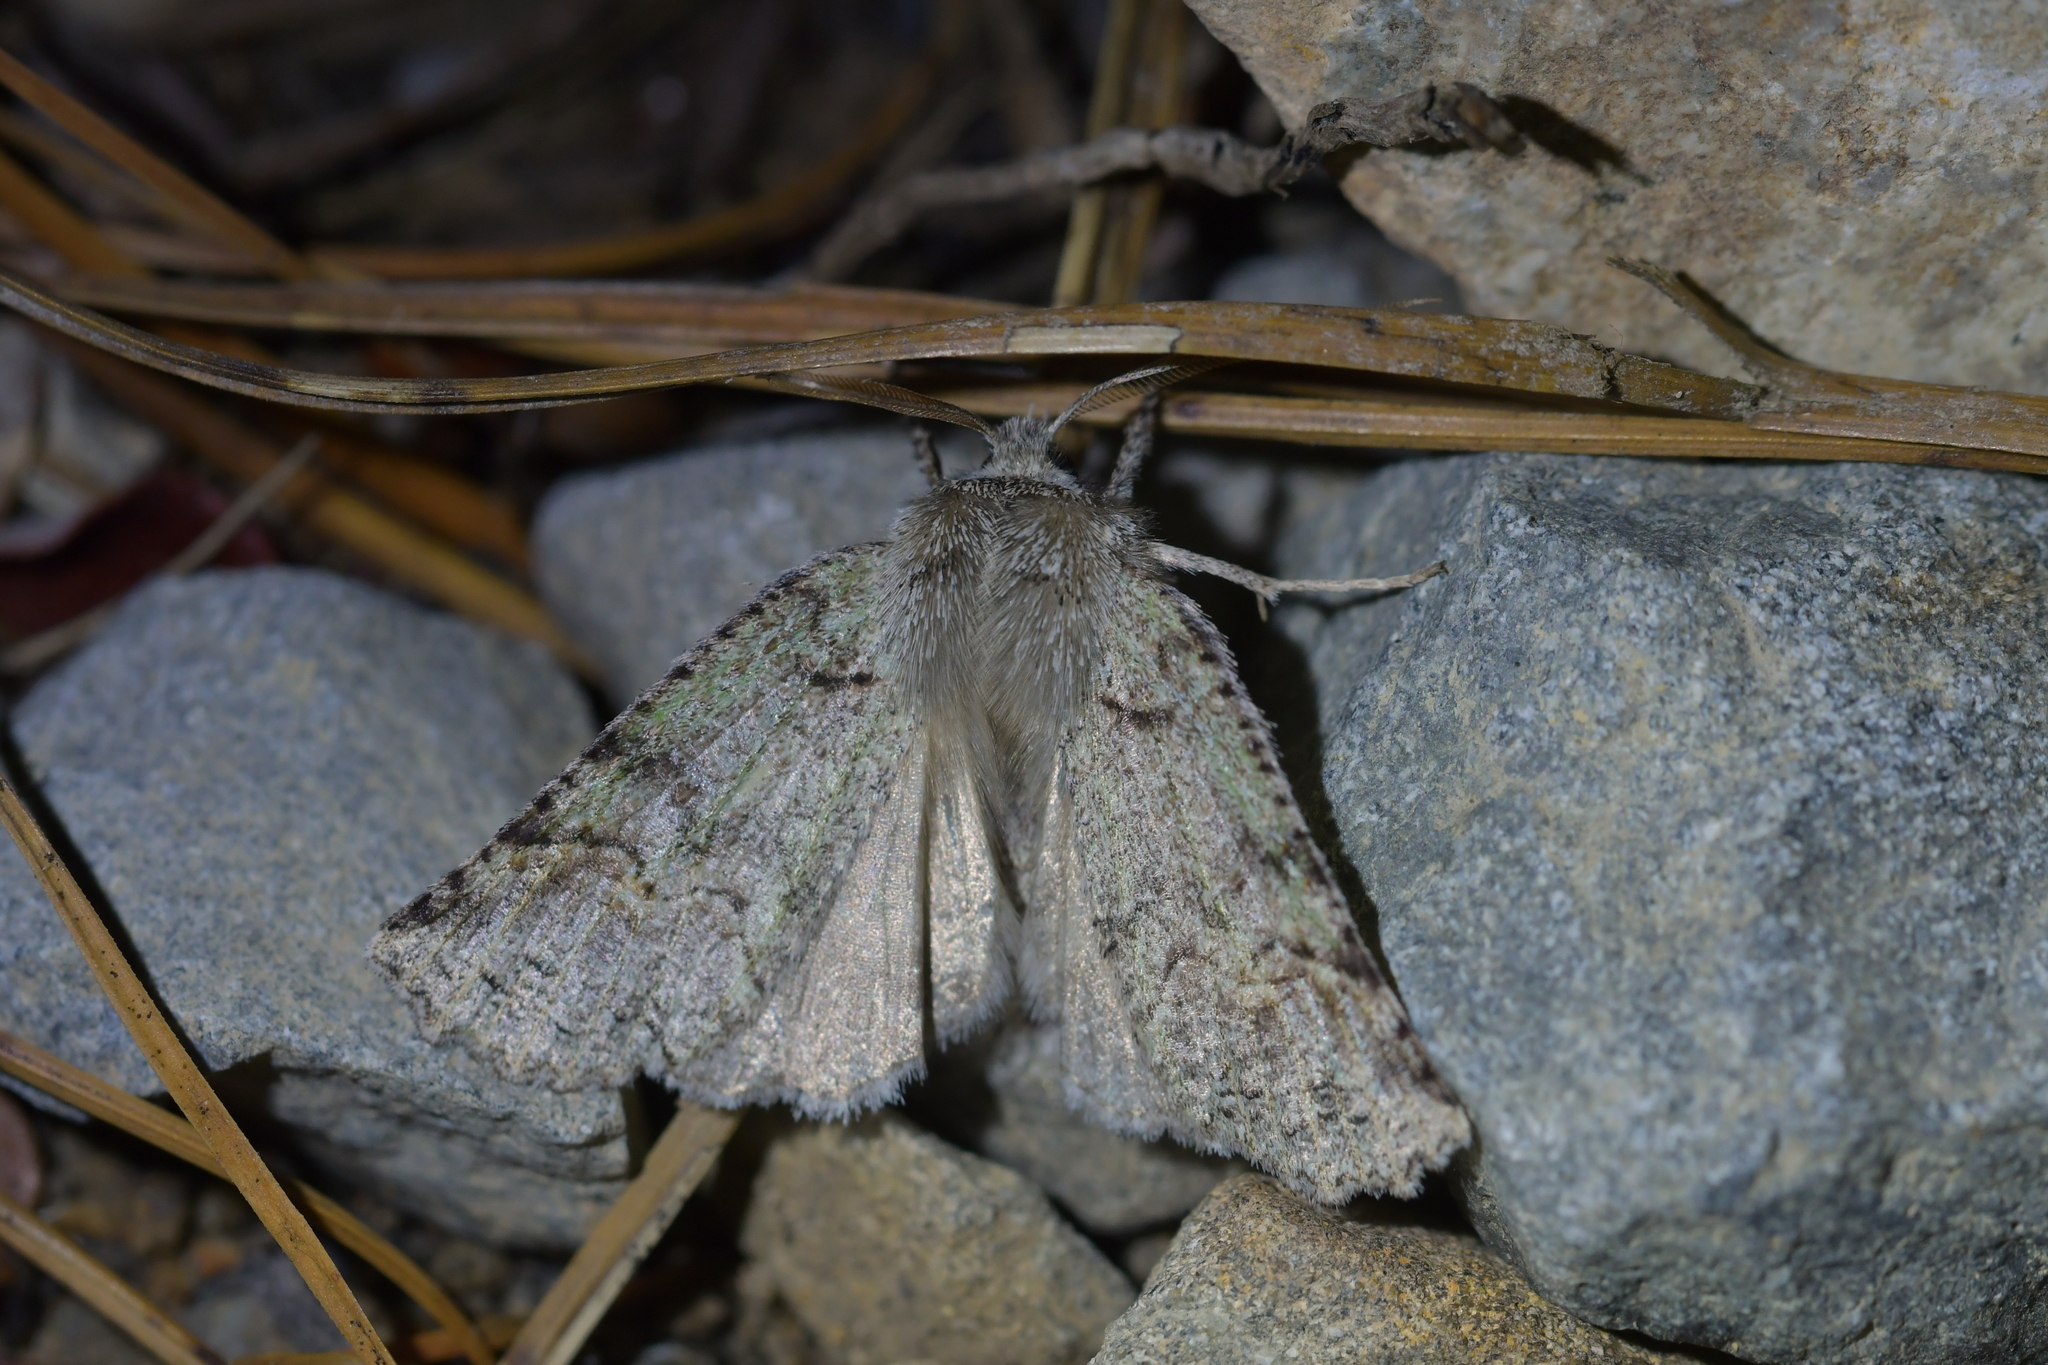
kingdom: Animalia
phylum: Arthropoda
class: Insecta
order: Lepidoptera
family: Geometridae
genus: Declana
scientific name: Declana floccosa
